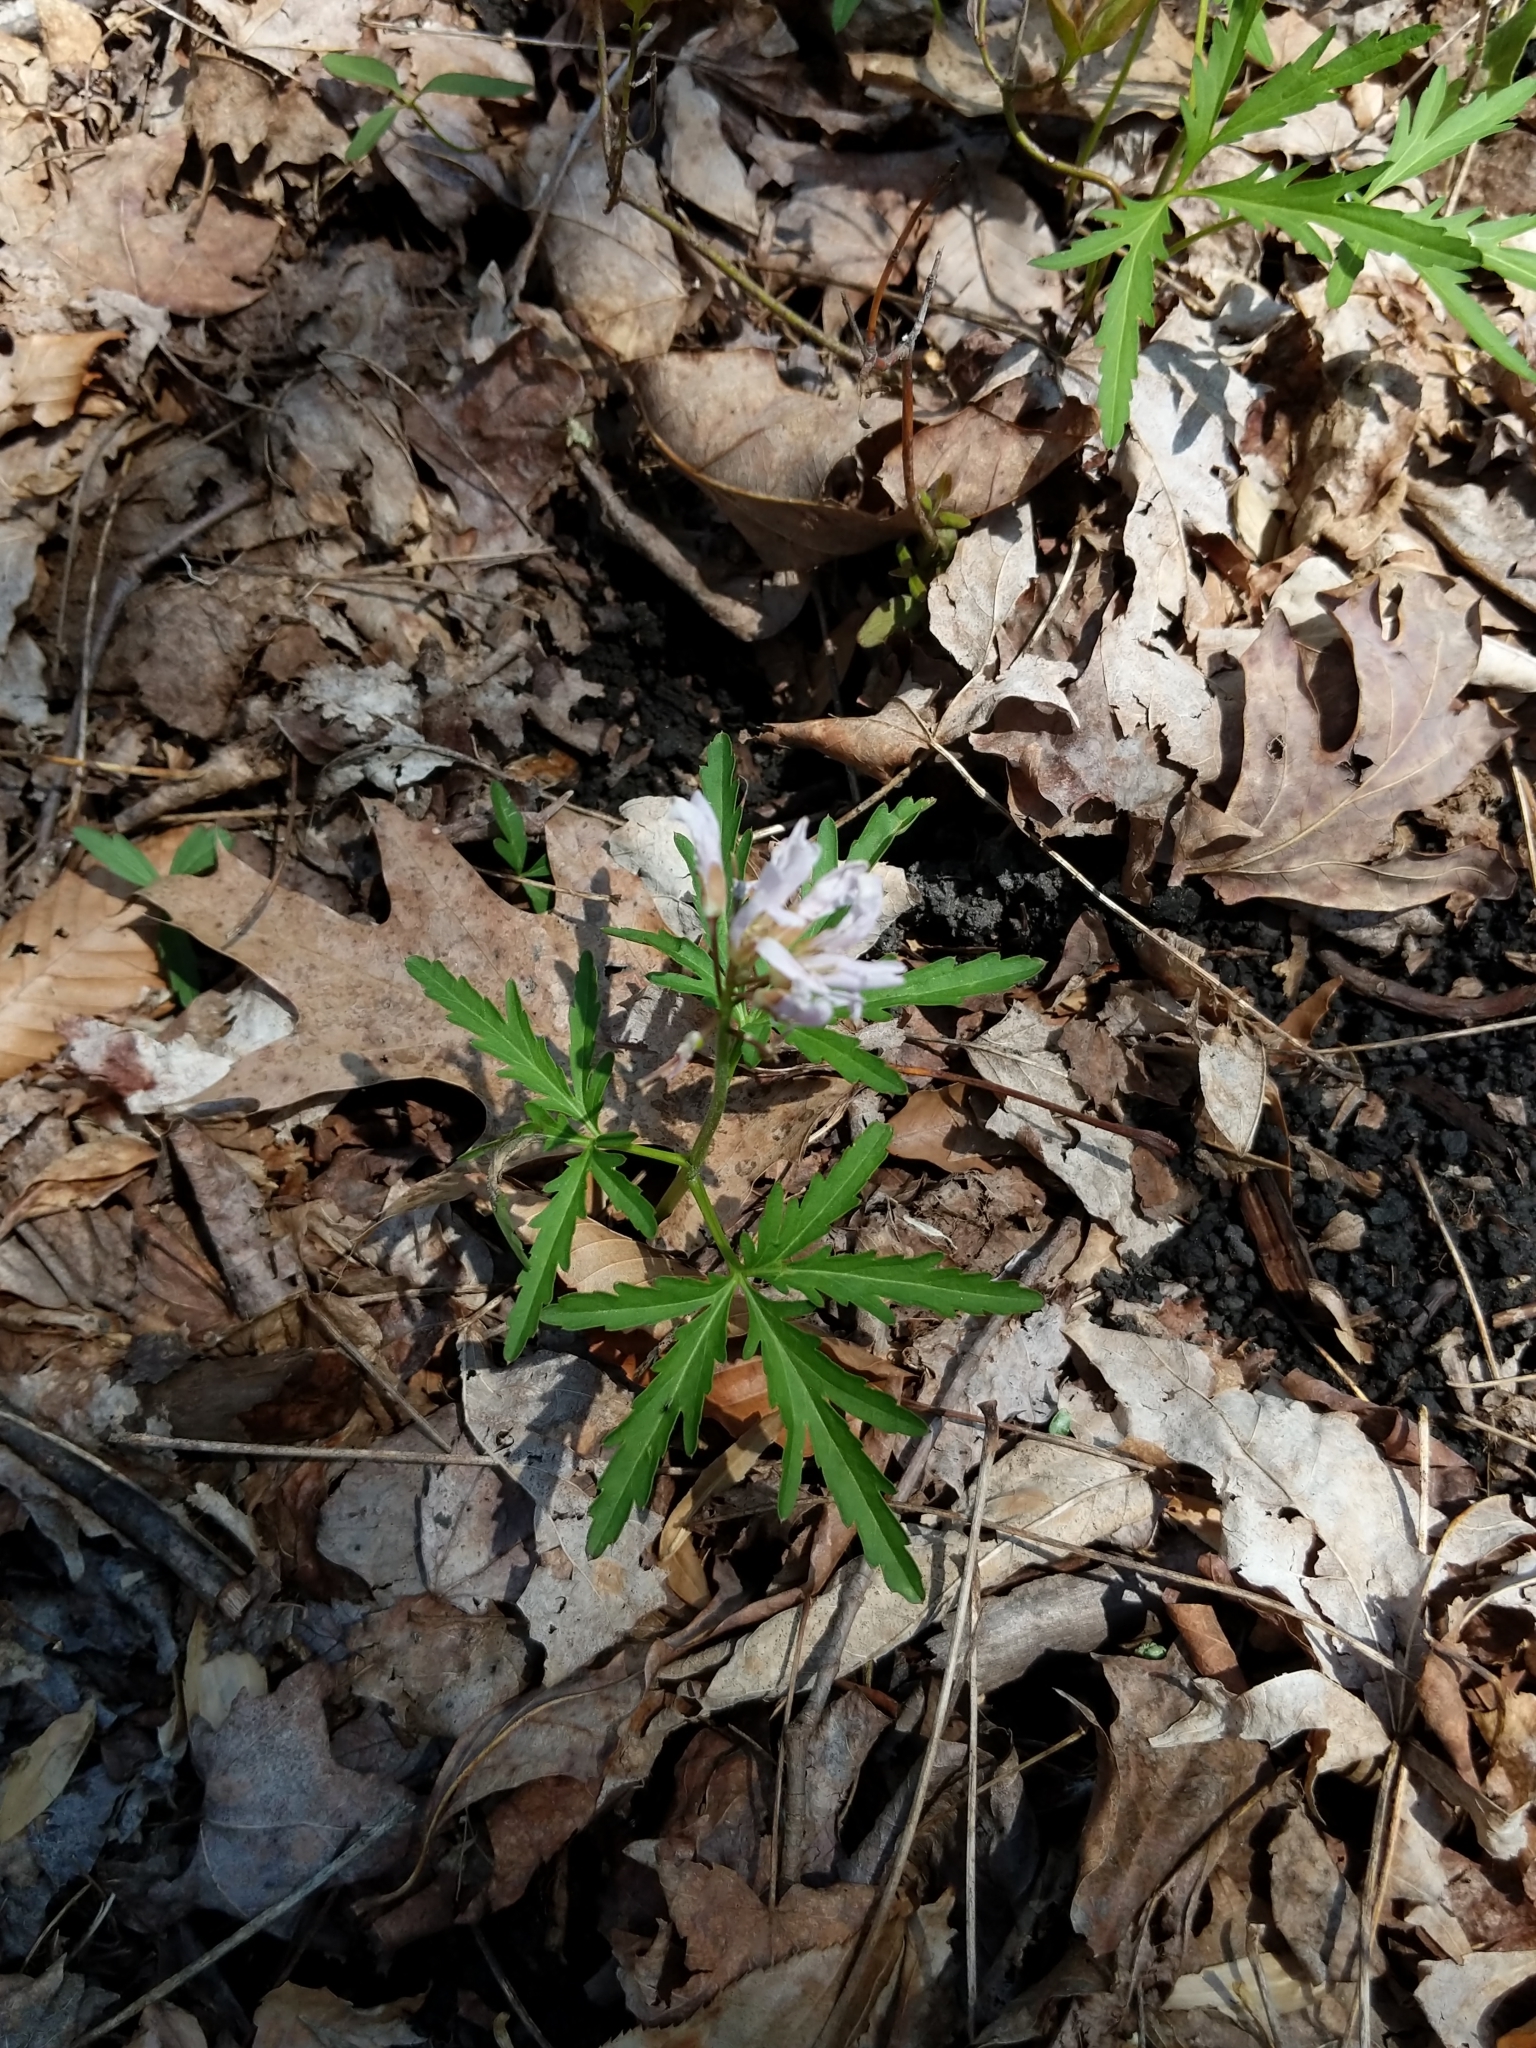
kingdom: Plantae
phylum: Tracheophyta
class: Magnoliopsida
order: Brassicales
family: Brassicaceae
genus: Cardamine
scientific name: Cardamine concatenata
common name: Cut-leaf toothcup
